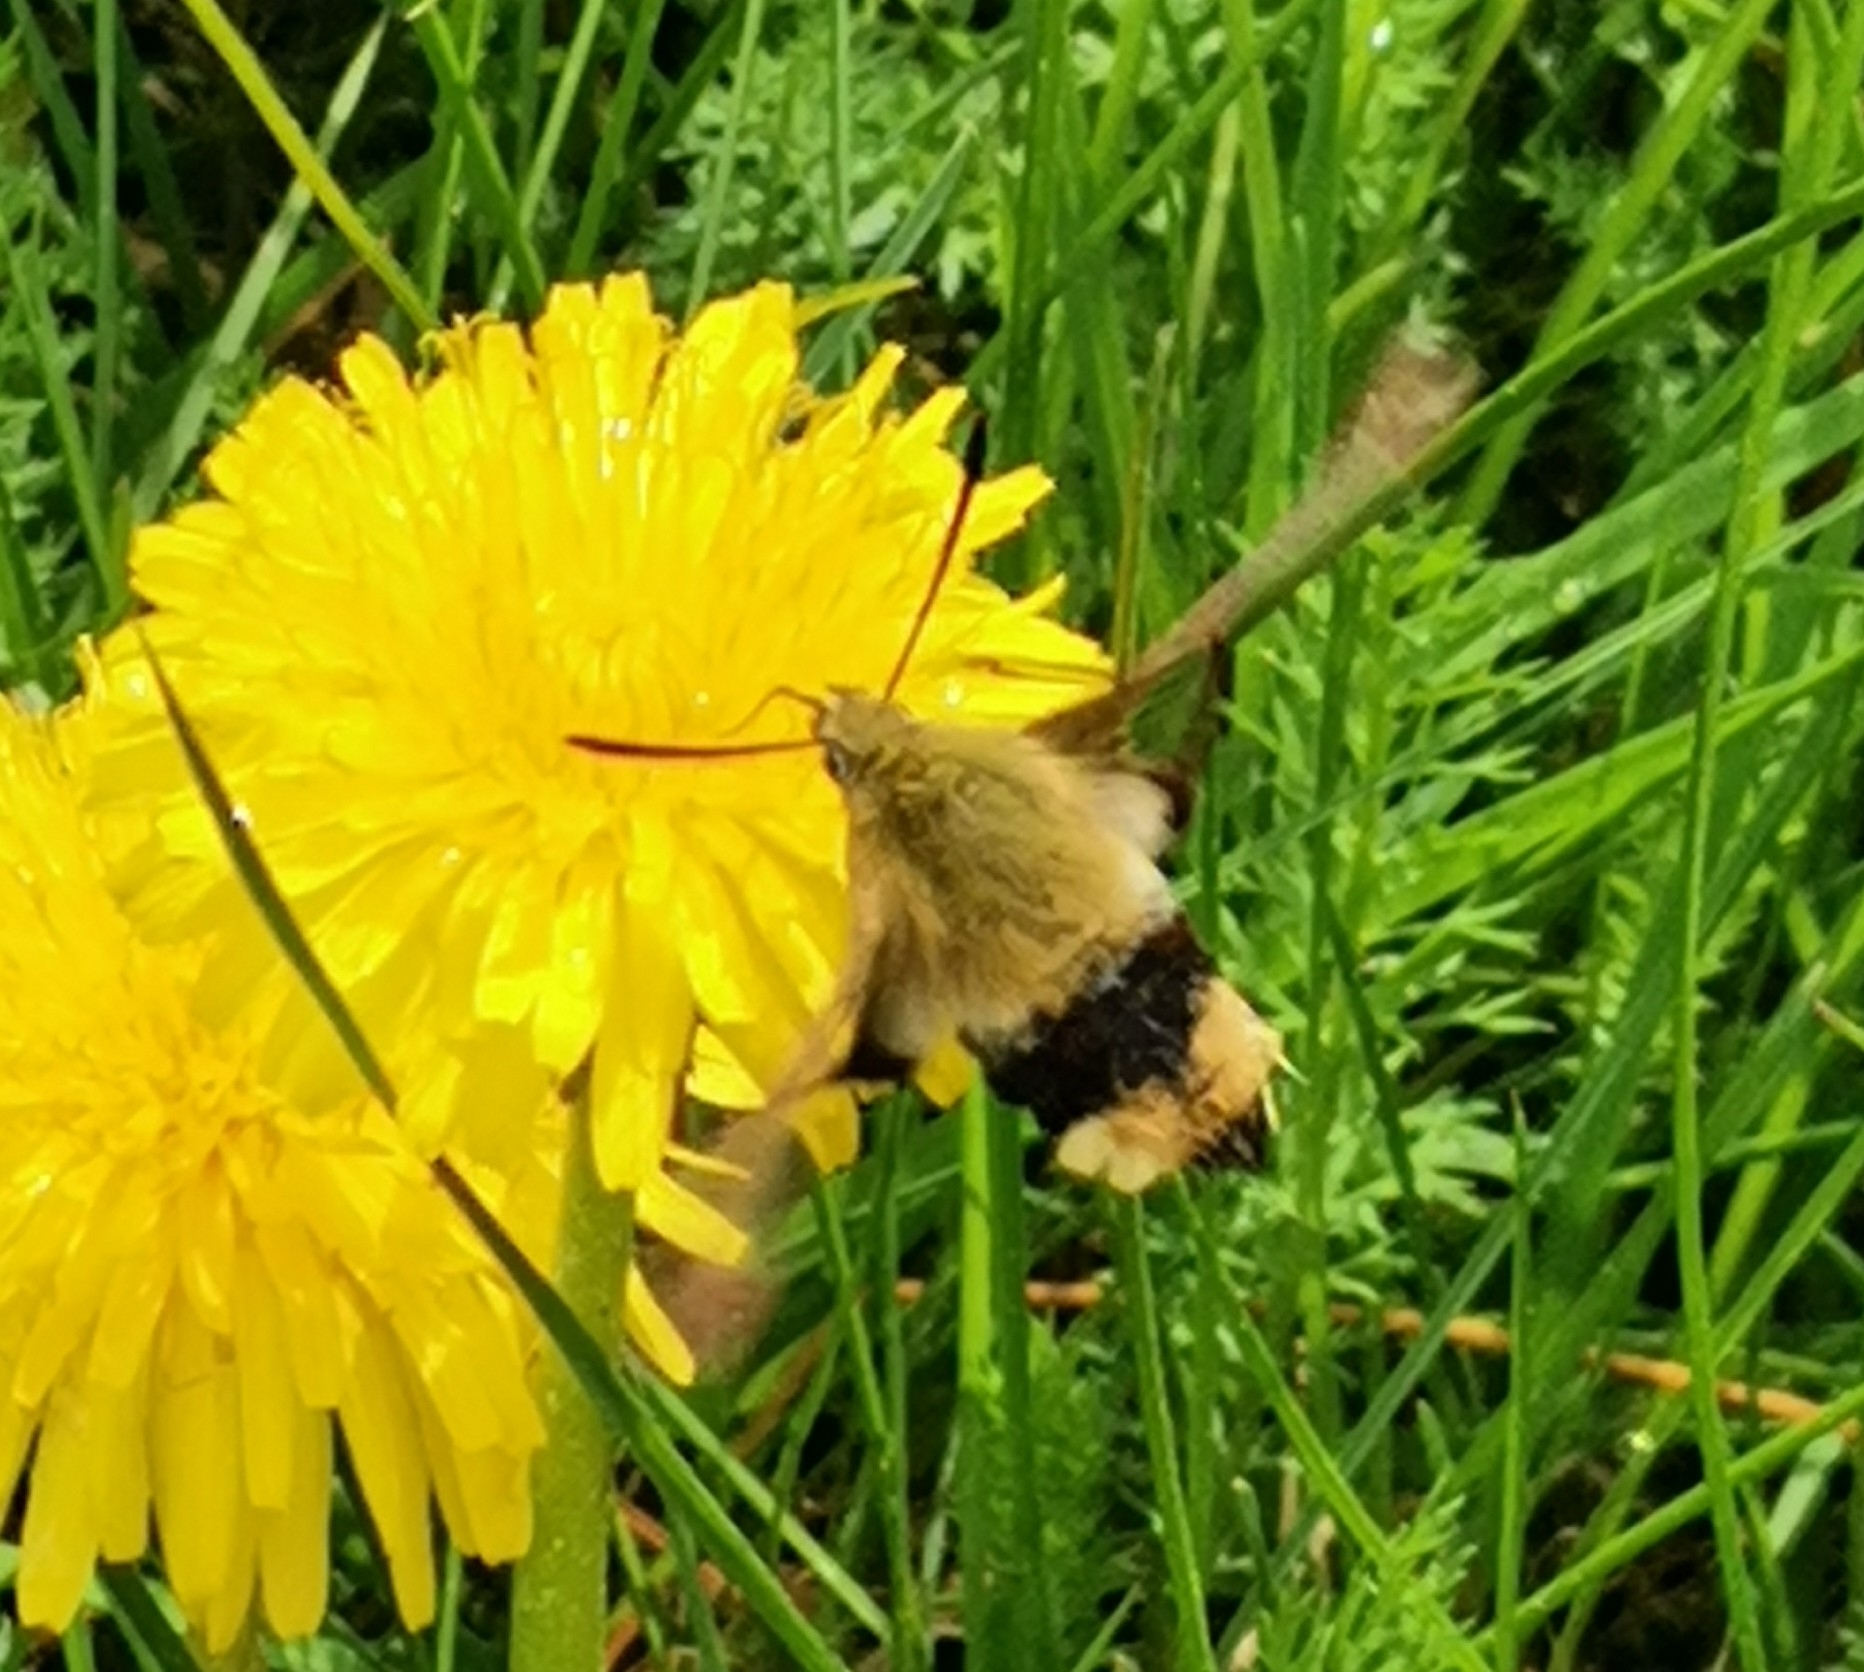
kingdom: Animalia
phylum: Arthropoda
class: Insecta
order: Lepidoptera
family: Sphingidae
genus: Hemaris
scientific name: Hemaris fuciformis
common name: Broad-bordered bee hawk-moth
